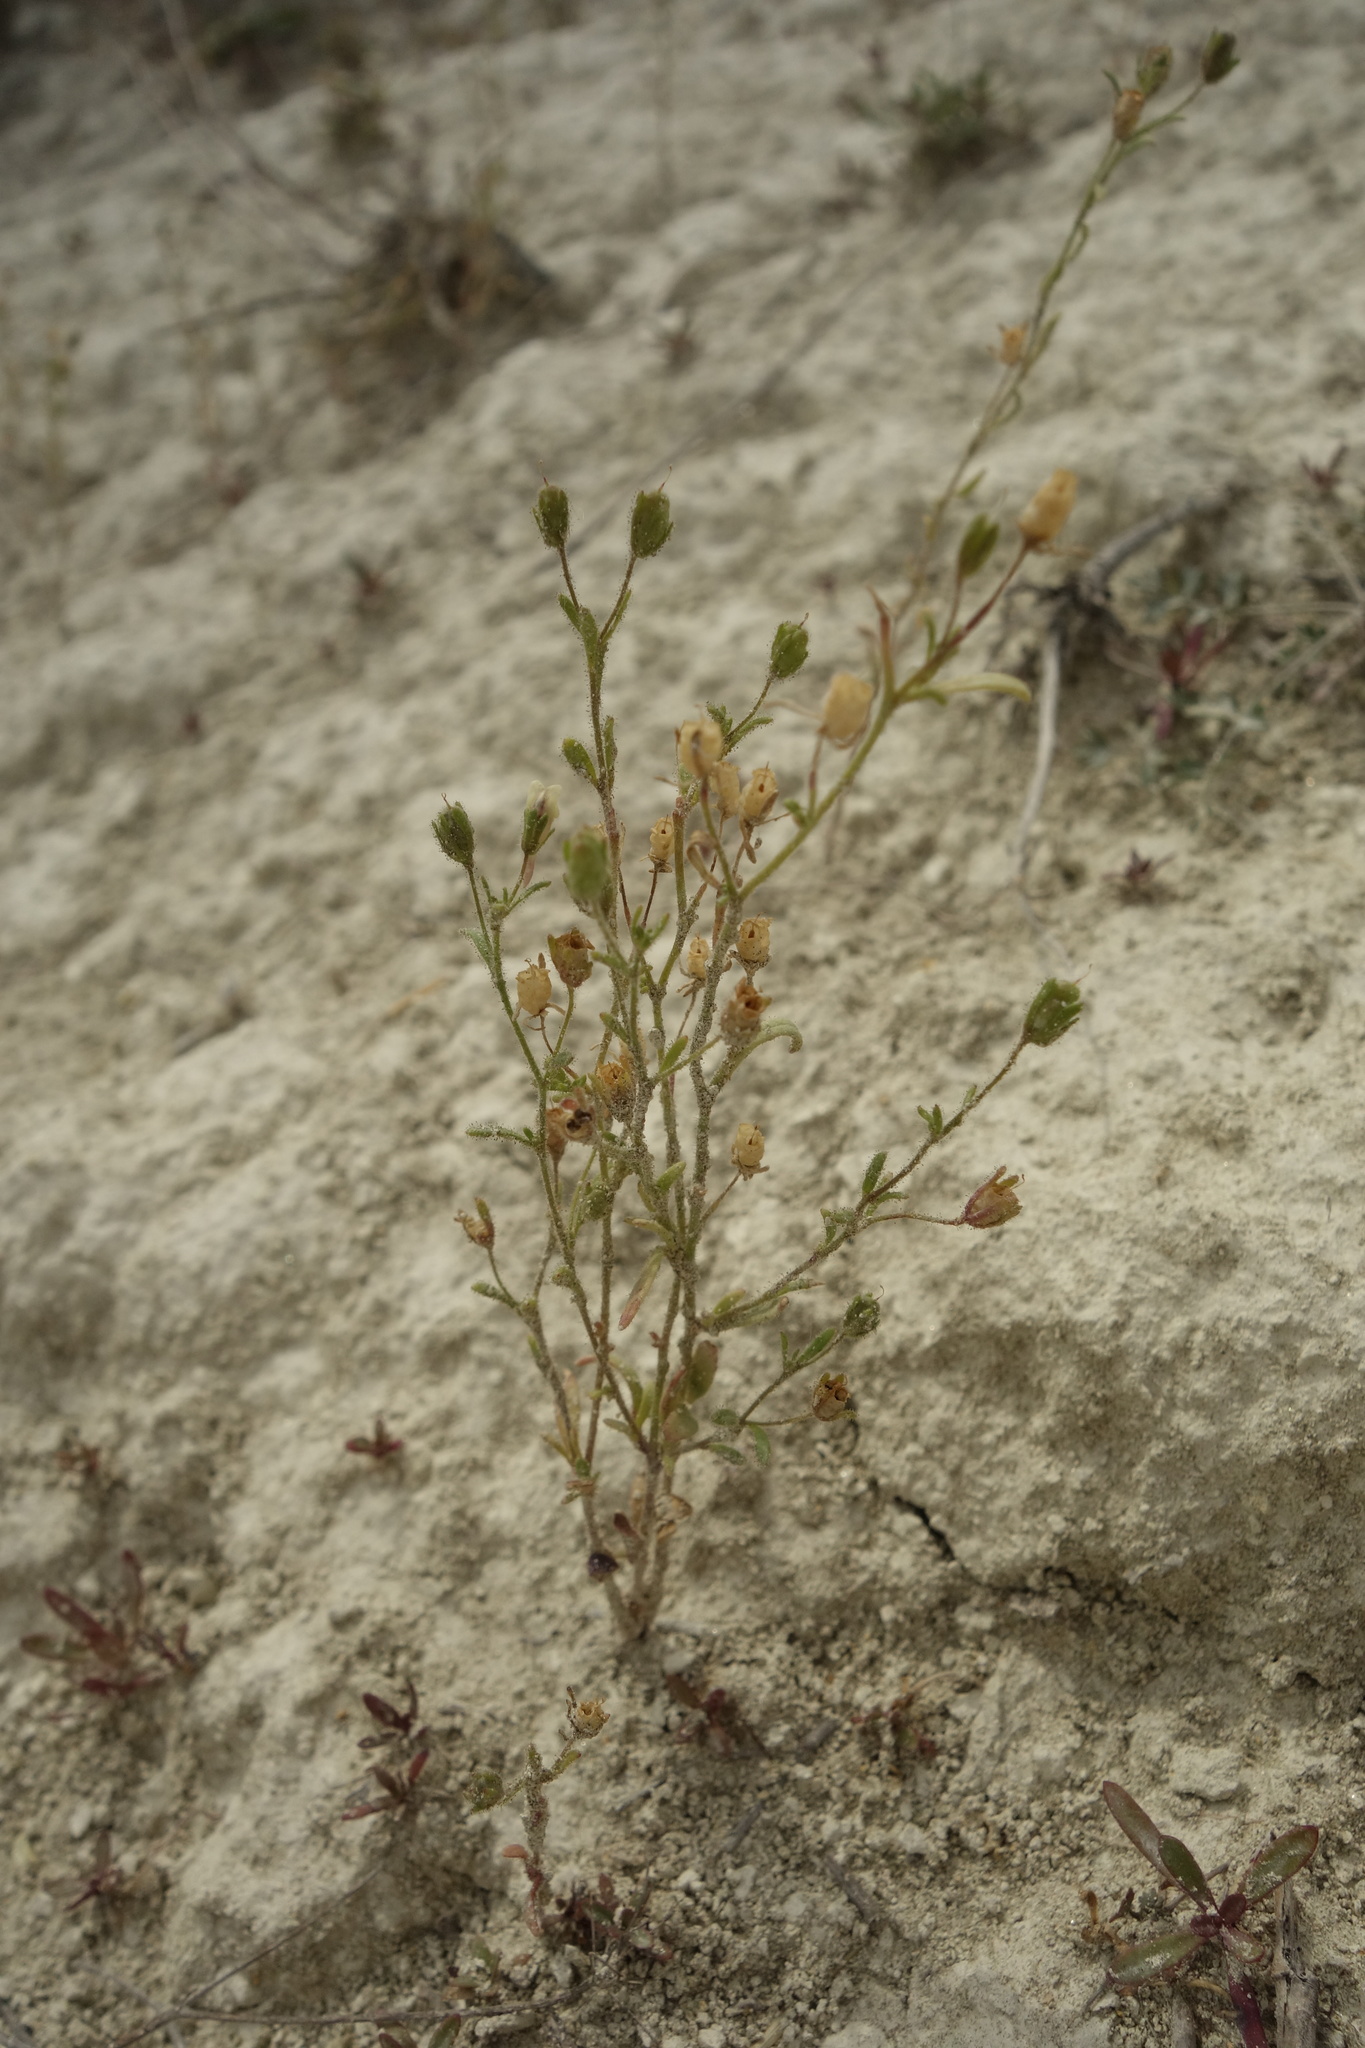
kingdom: Plantae
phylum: Tracheophyta
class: Magnoliopsida
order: Lamiales
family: Plantaginaceae
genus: Chaenorhinum
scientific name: Chaenorhinum minus
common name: Dwarf snapdragon
